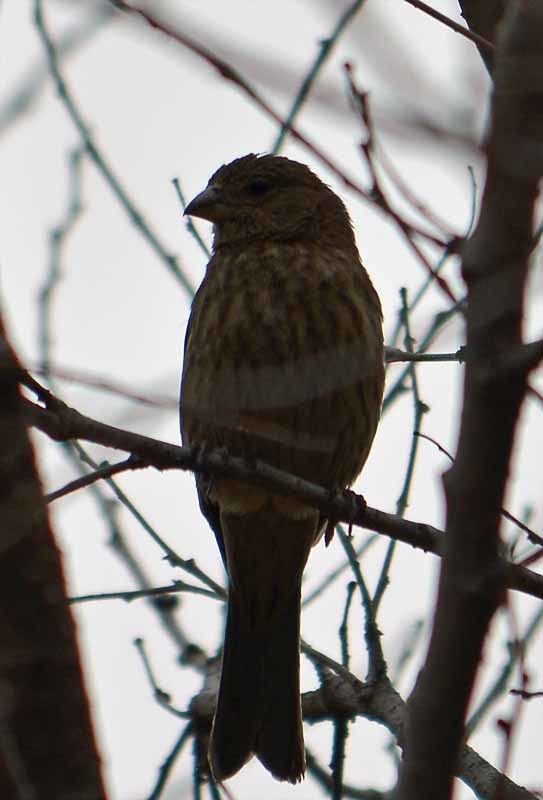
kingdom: Animalia
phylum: Chordata
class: Aves
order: Passeriformes
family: Fringillidae
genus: Haemorhous
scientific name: Haemorhous mexicanus
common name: House finch
